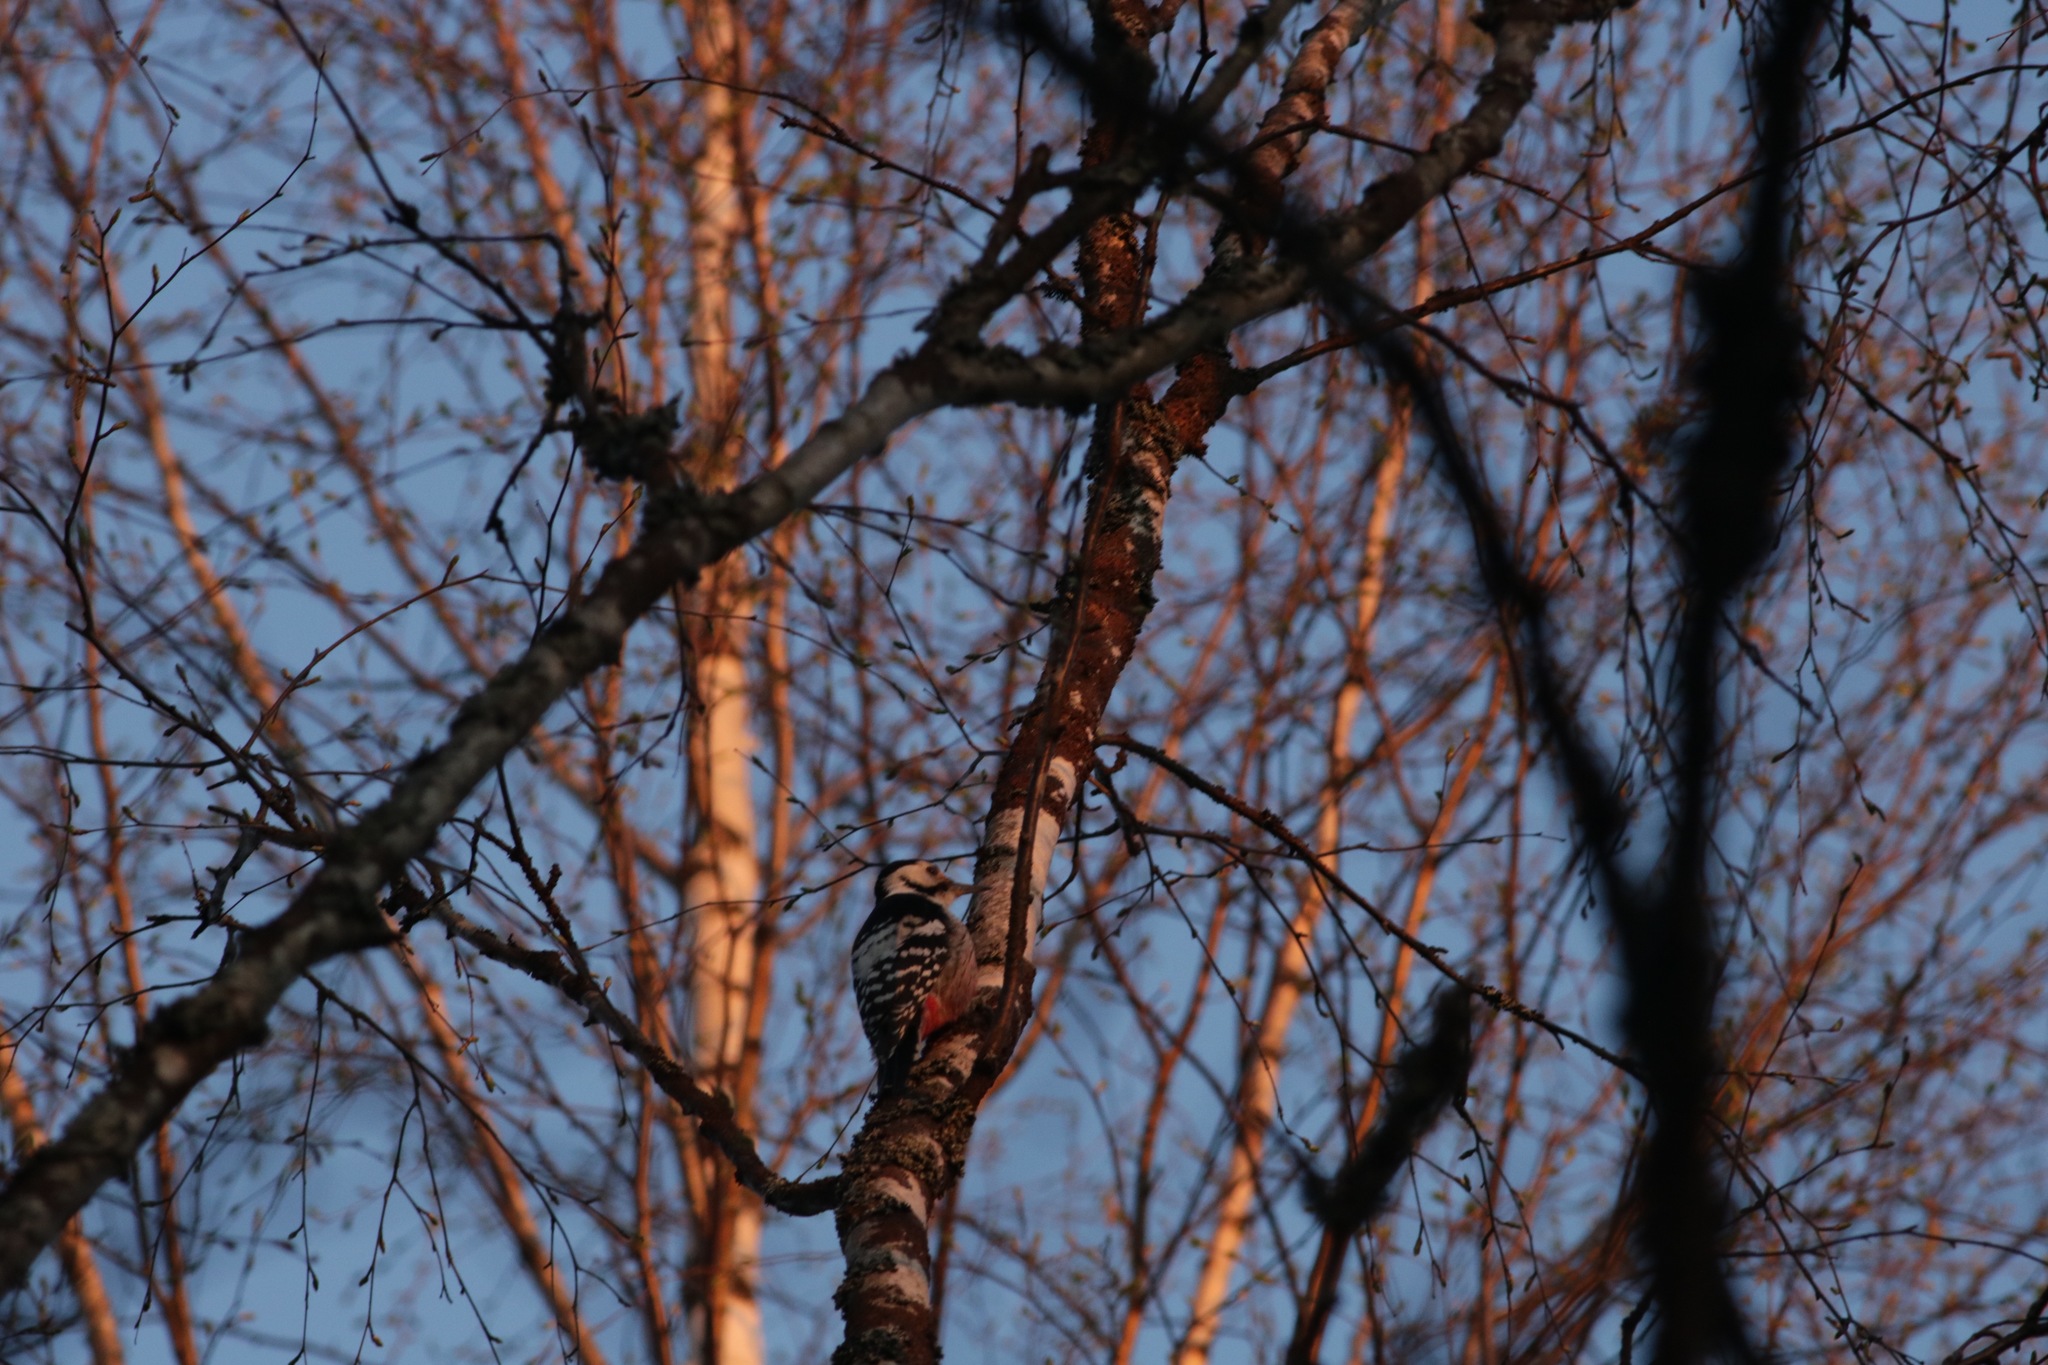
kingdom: Animalia
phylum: Chordata
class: Aves
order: Piciformes
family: Picidae
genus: Dendrocopos
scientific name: Dendrocopos leucotos
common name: White-backed woodpecker
